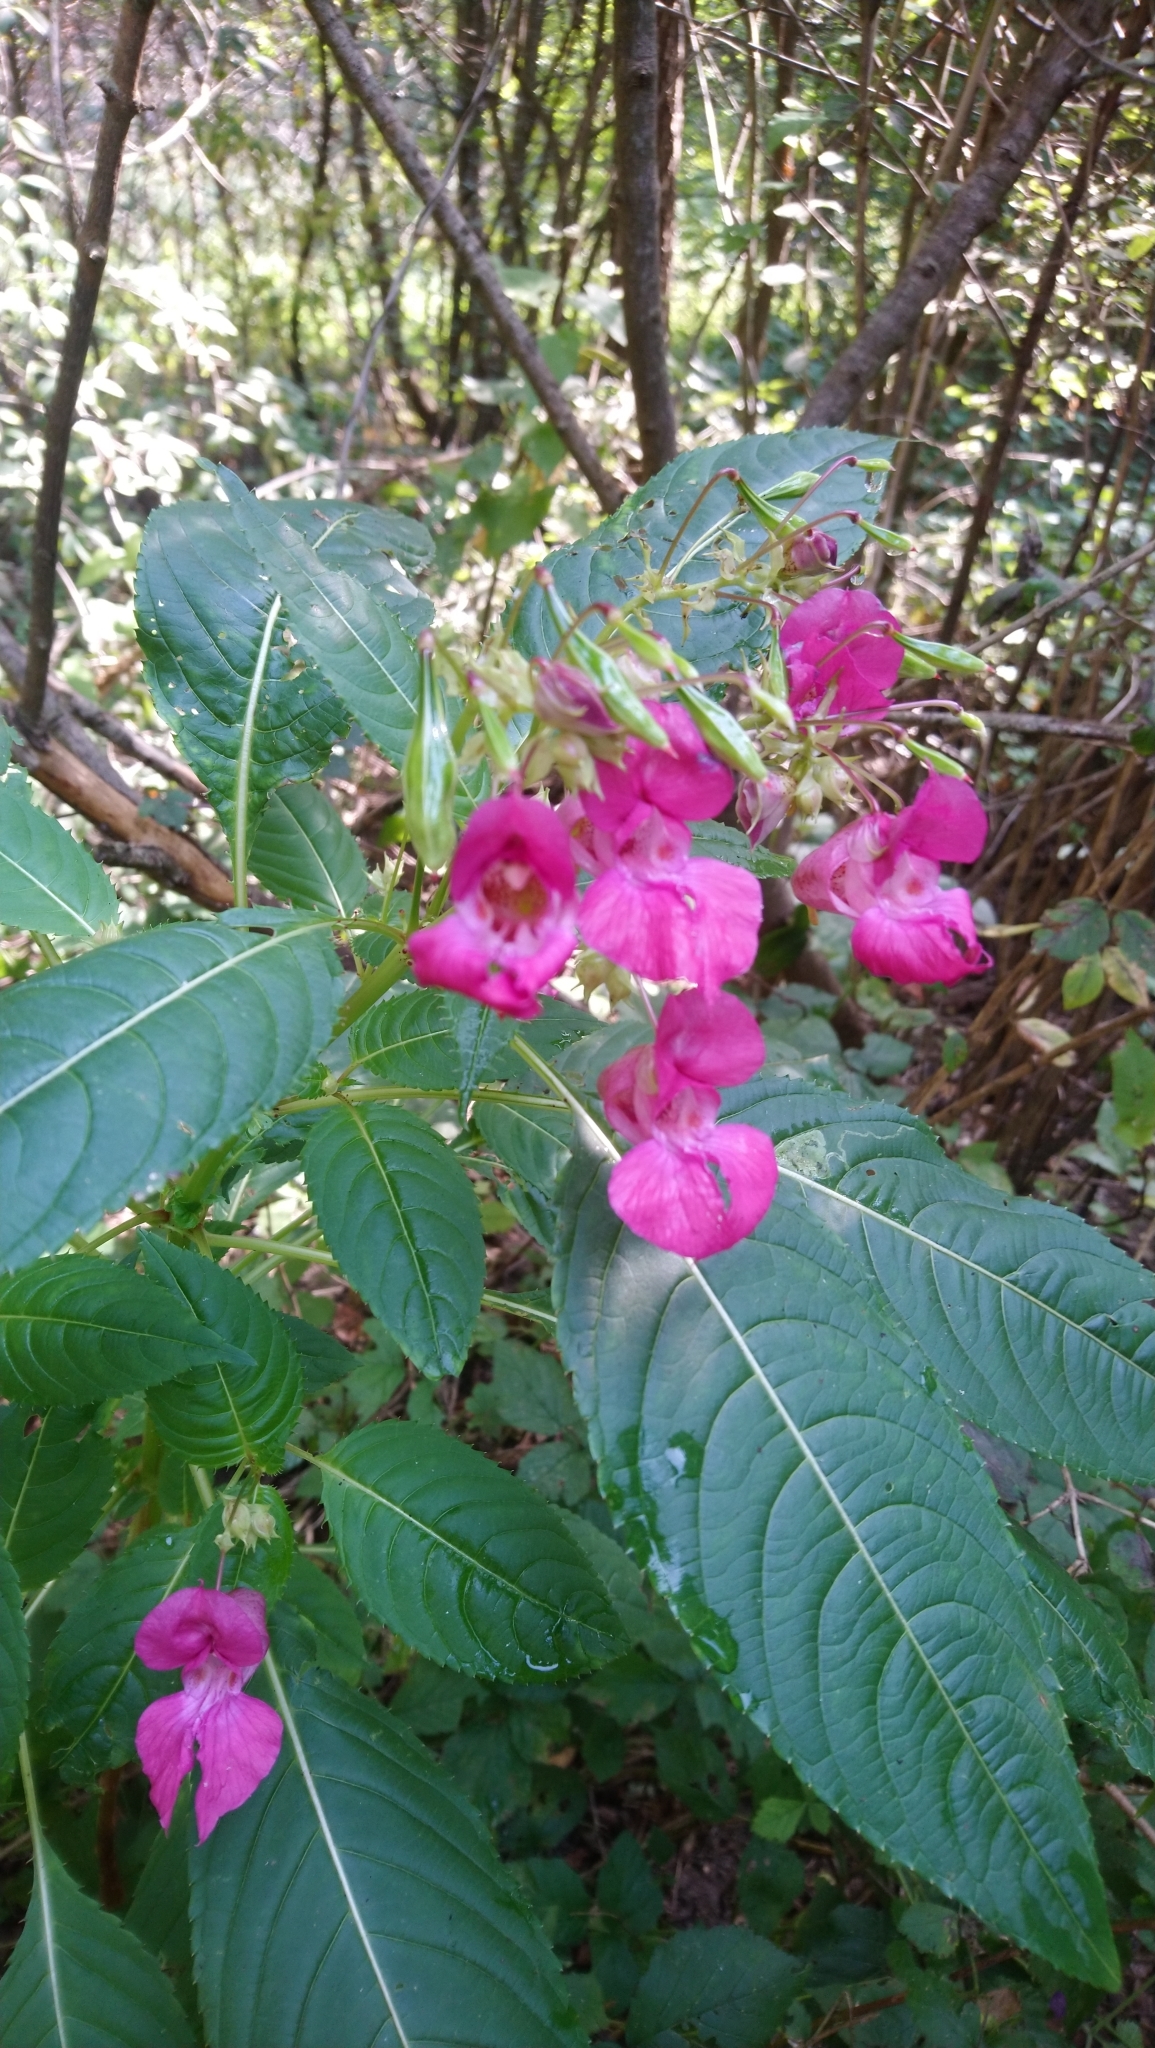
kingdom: Plantae
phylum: Tracheophyta
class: Magnoliopsida
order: Ericales
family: Balsaminaceae
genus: Impatiens
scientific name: Impatiens glandulifera
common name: Himalayan balsam
